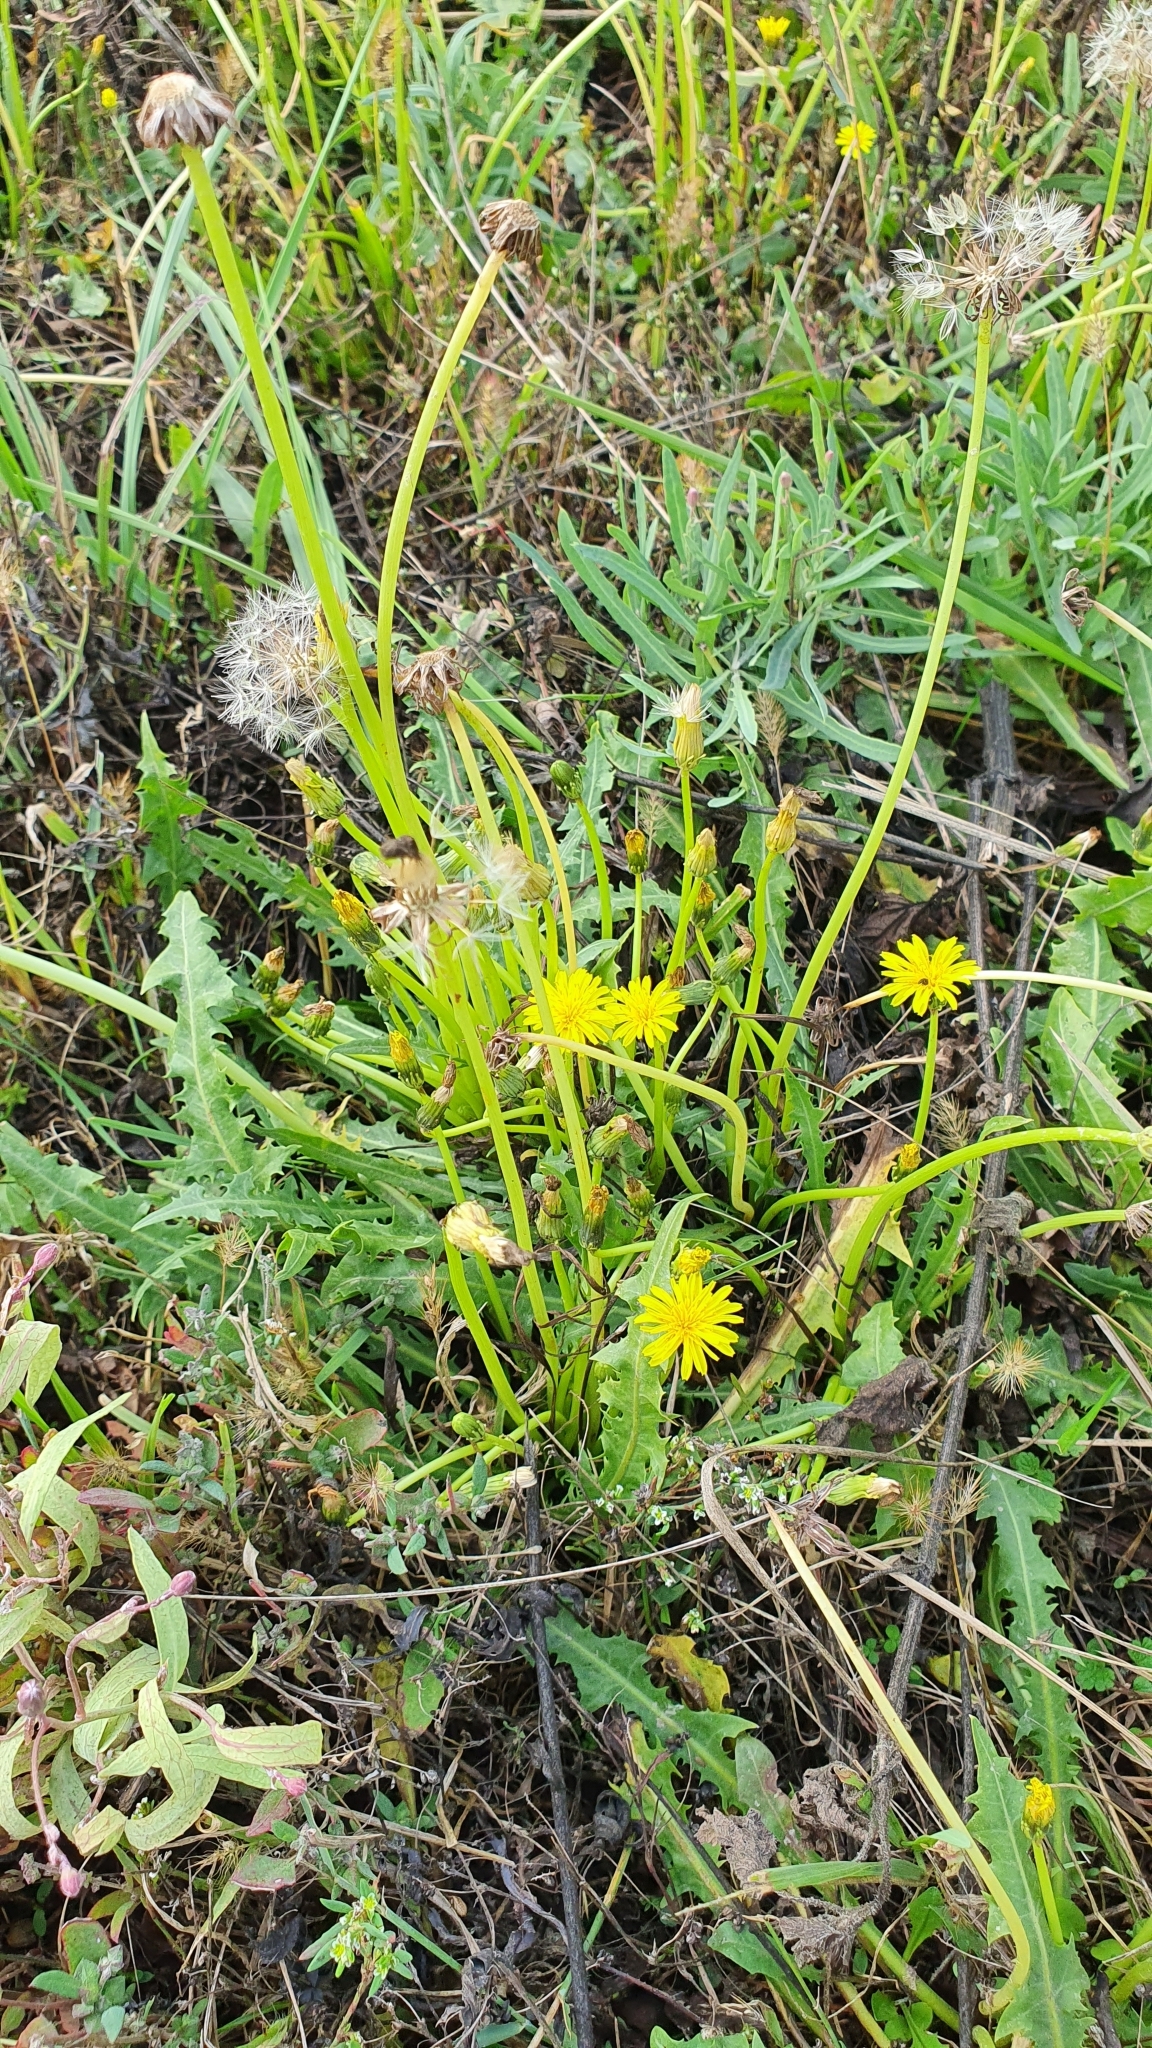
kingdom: Plantae
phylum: Tracheophyta
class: Magnoliopsida
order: Asterales
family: Asteraceae
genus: Taraxacum
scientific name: Taraxacum bessarabicum
